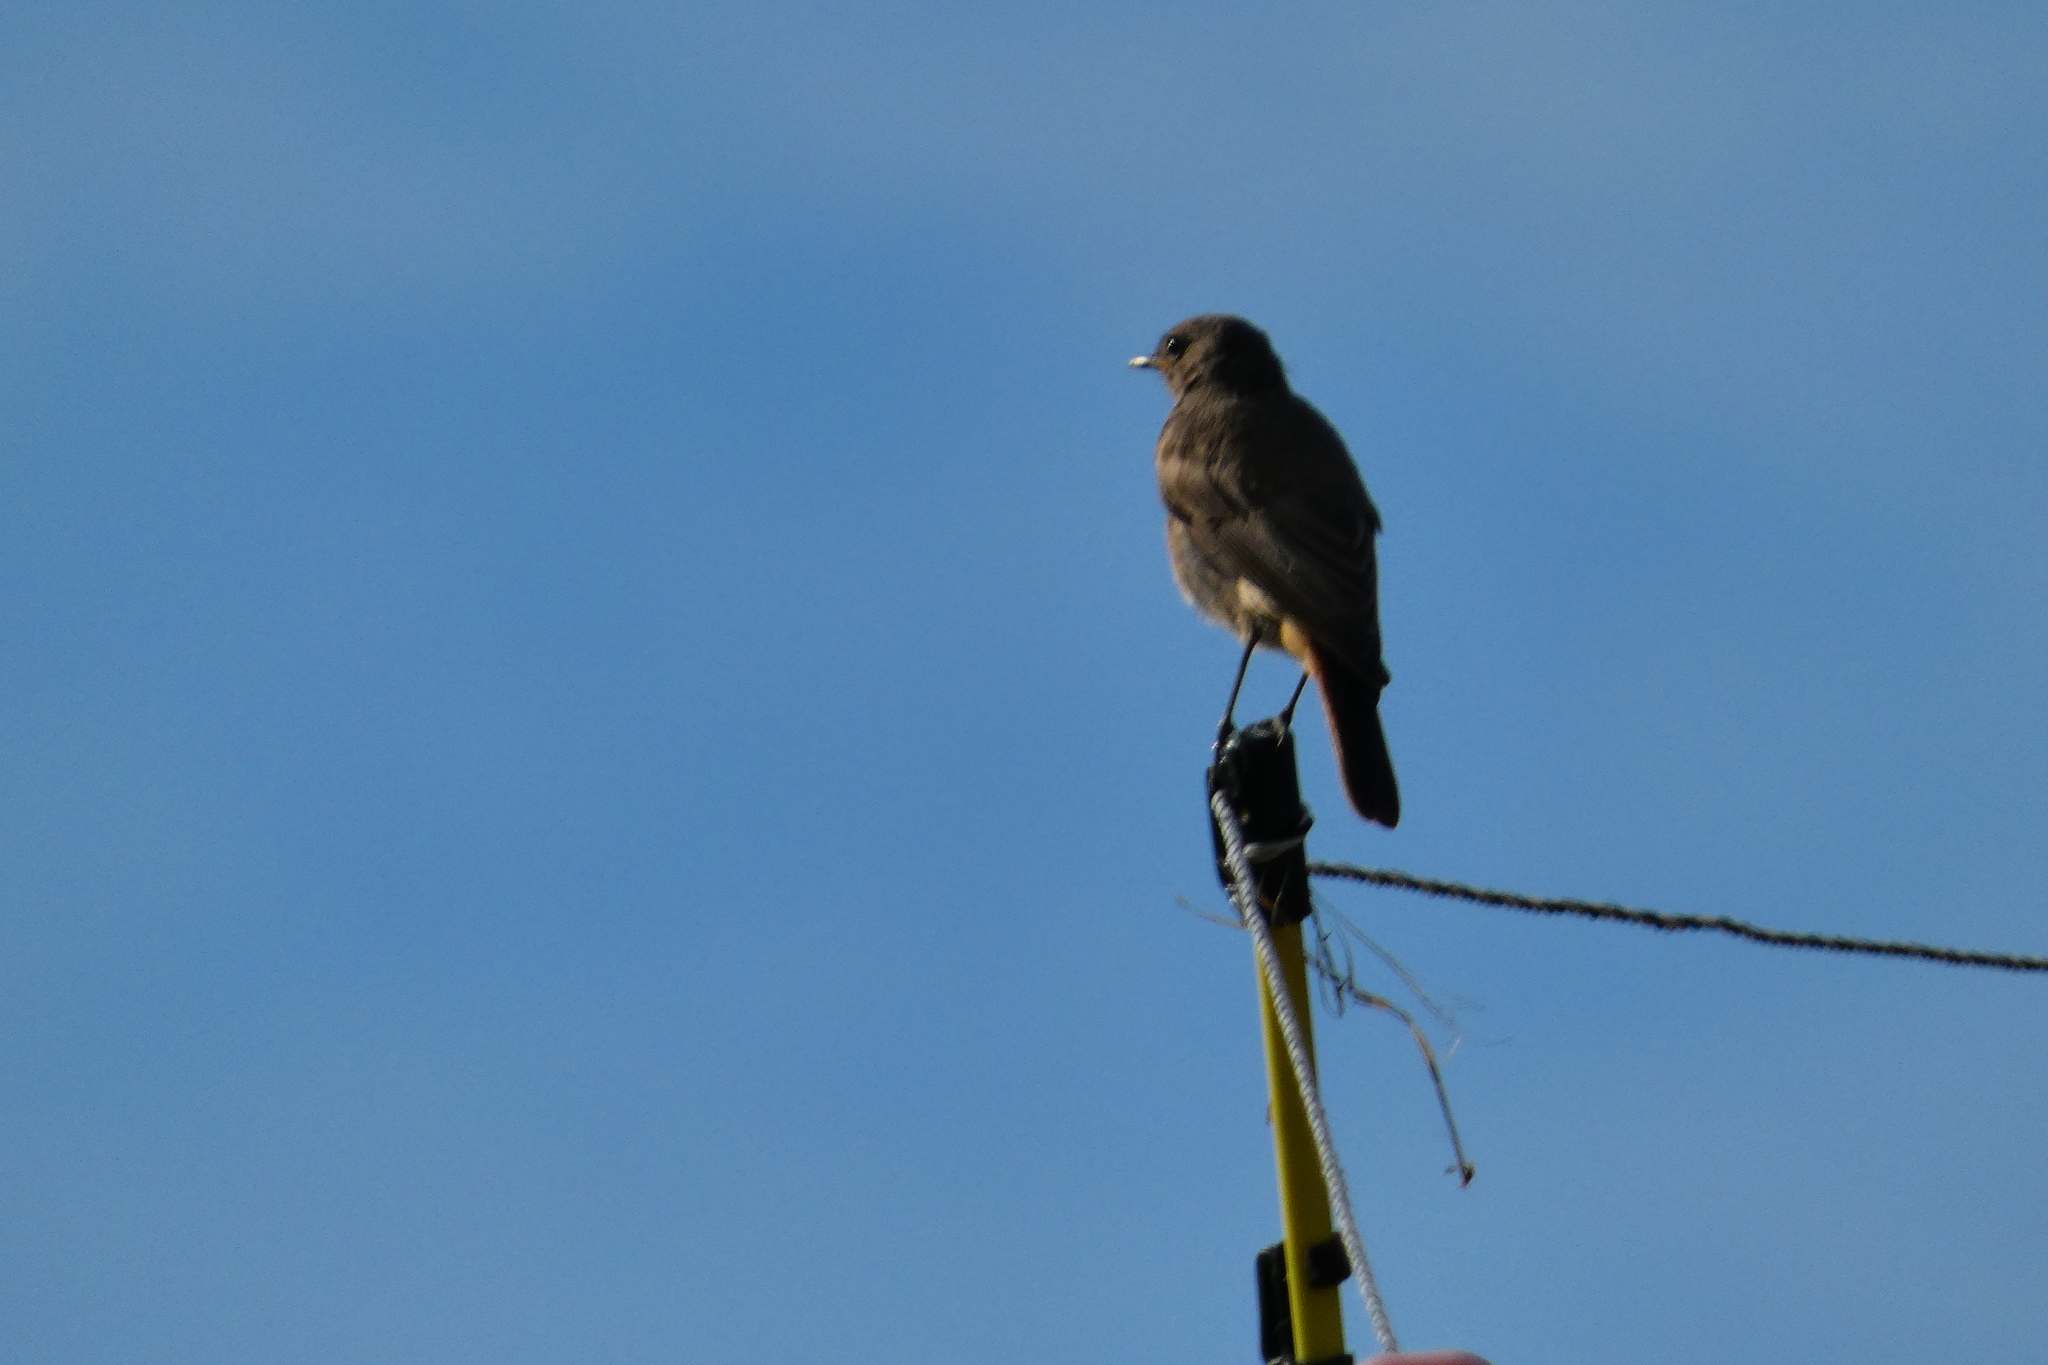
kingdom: Animalia
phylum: Chordata
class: Aves
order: Passeriformes
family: Muscicapidae
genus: Phoenicurus
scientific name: Phoenicurus ochruros
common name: Black redstart
